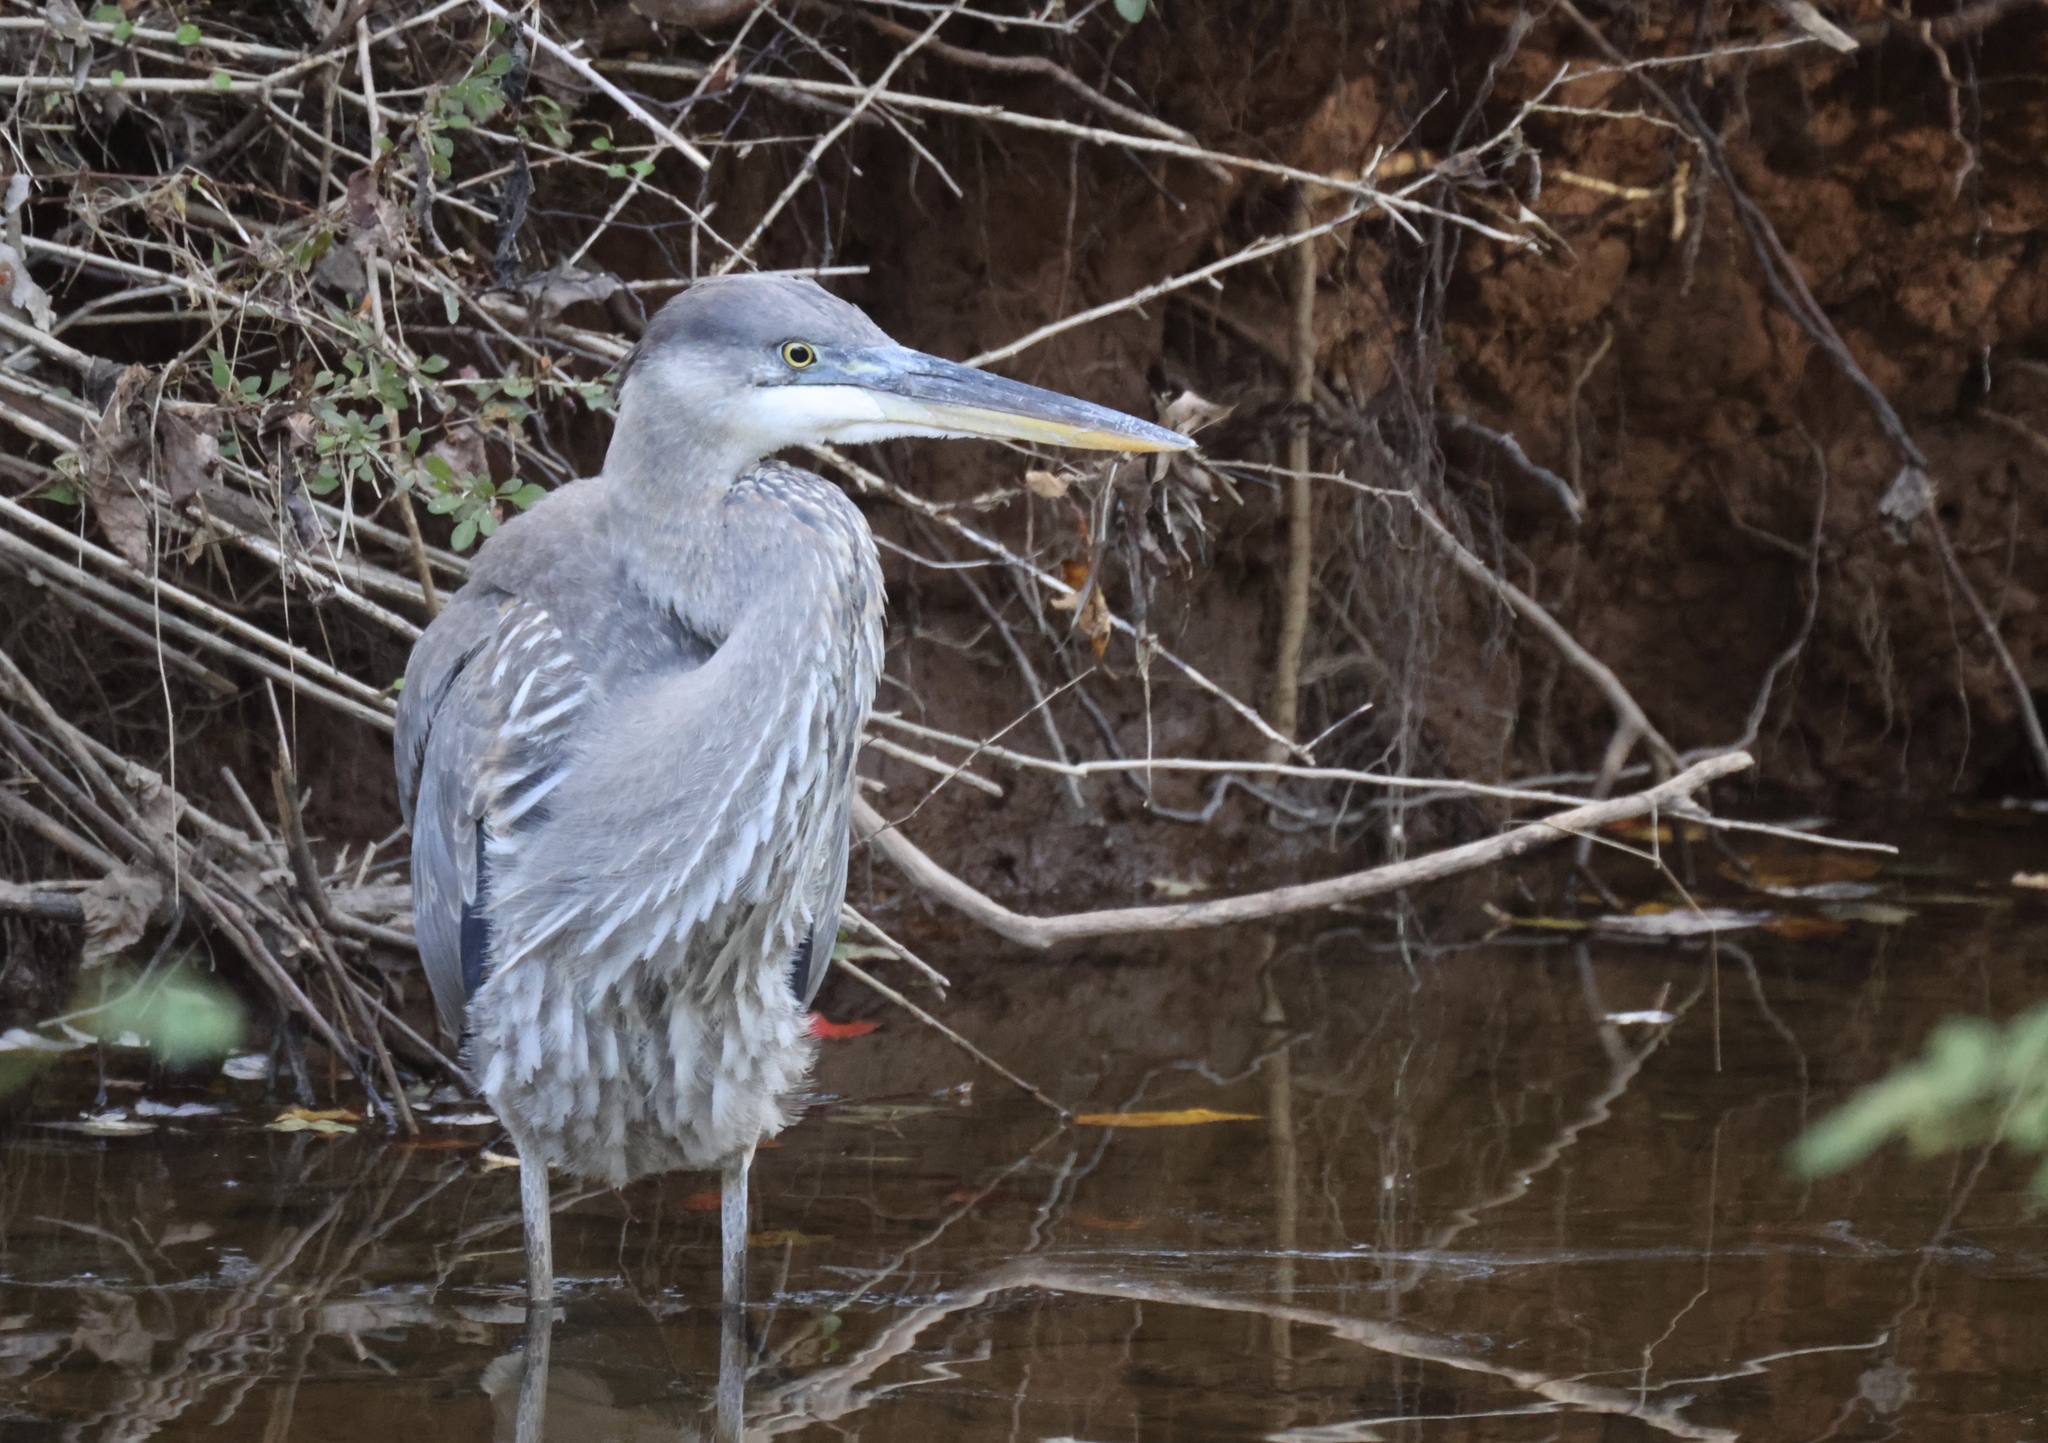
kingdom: Animalia
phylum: Chordata
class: Aves
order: Pelecaniformes
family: Ardeidae
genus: Ardea
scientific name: Ardea herodias
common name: Great blue heron
